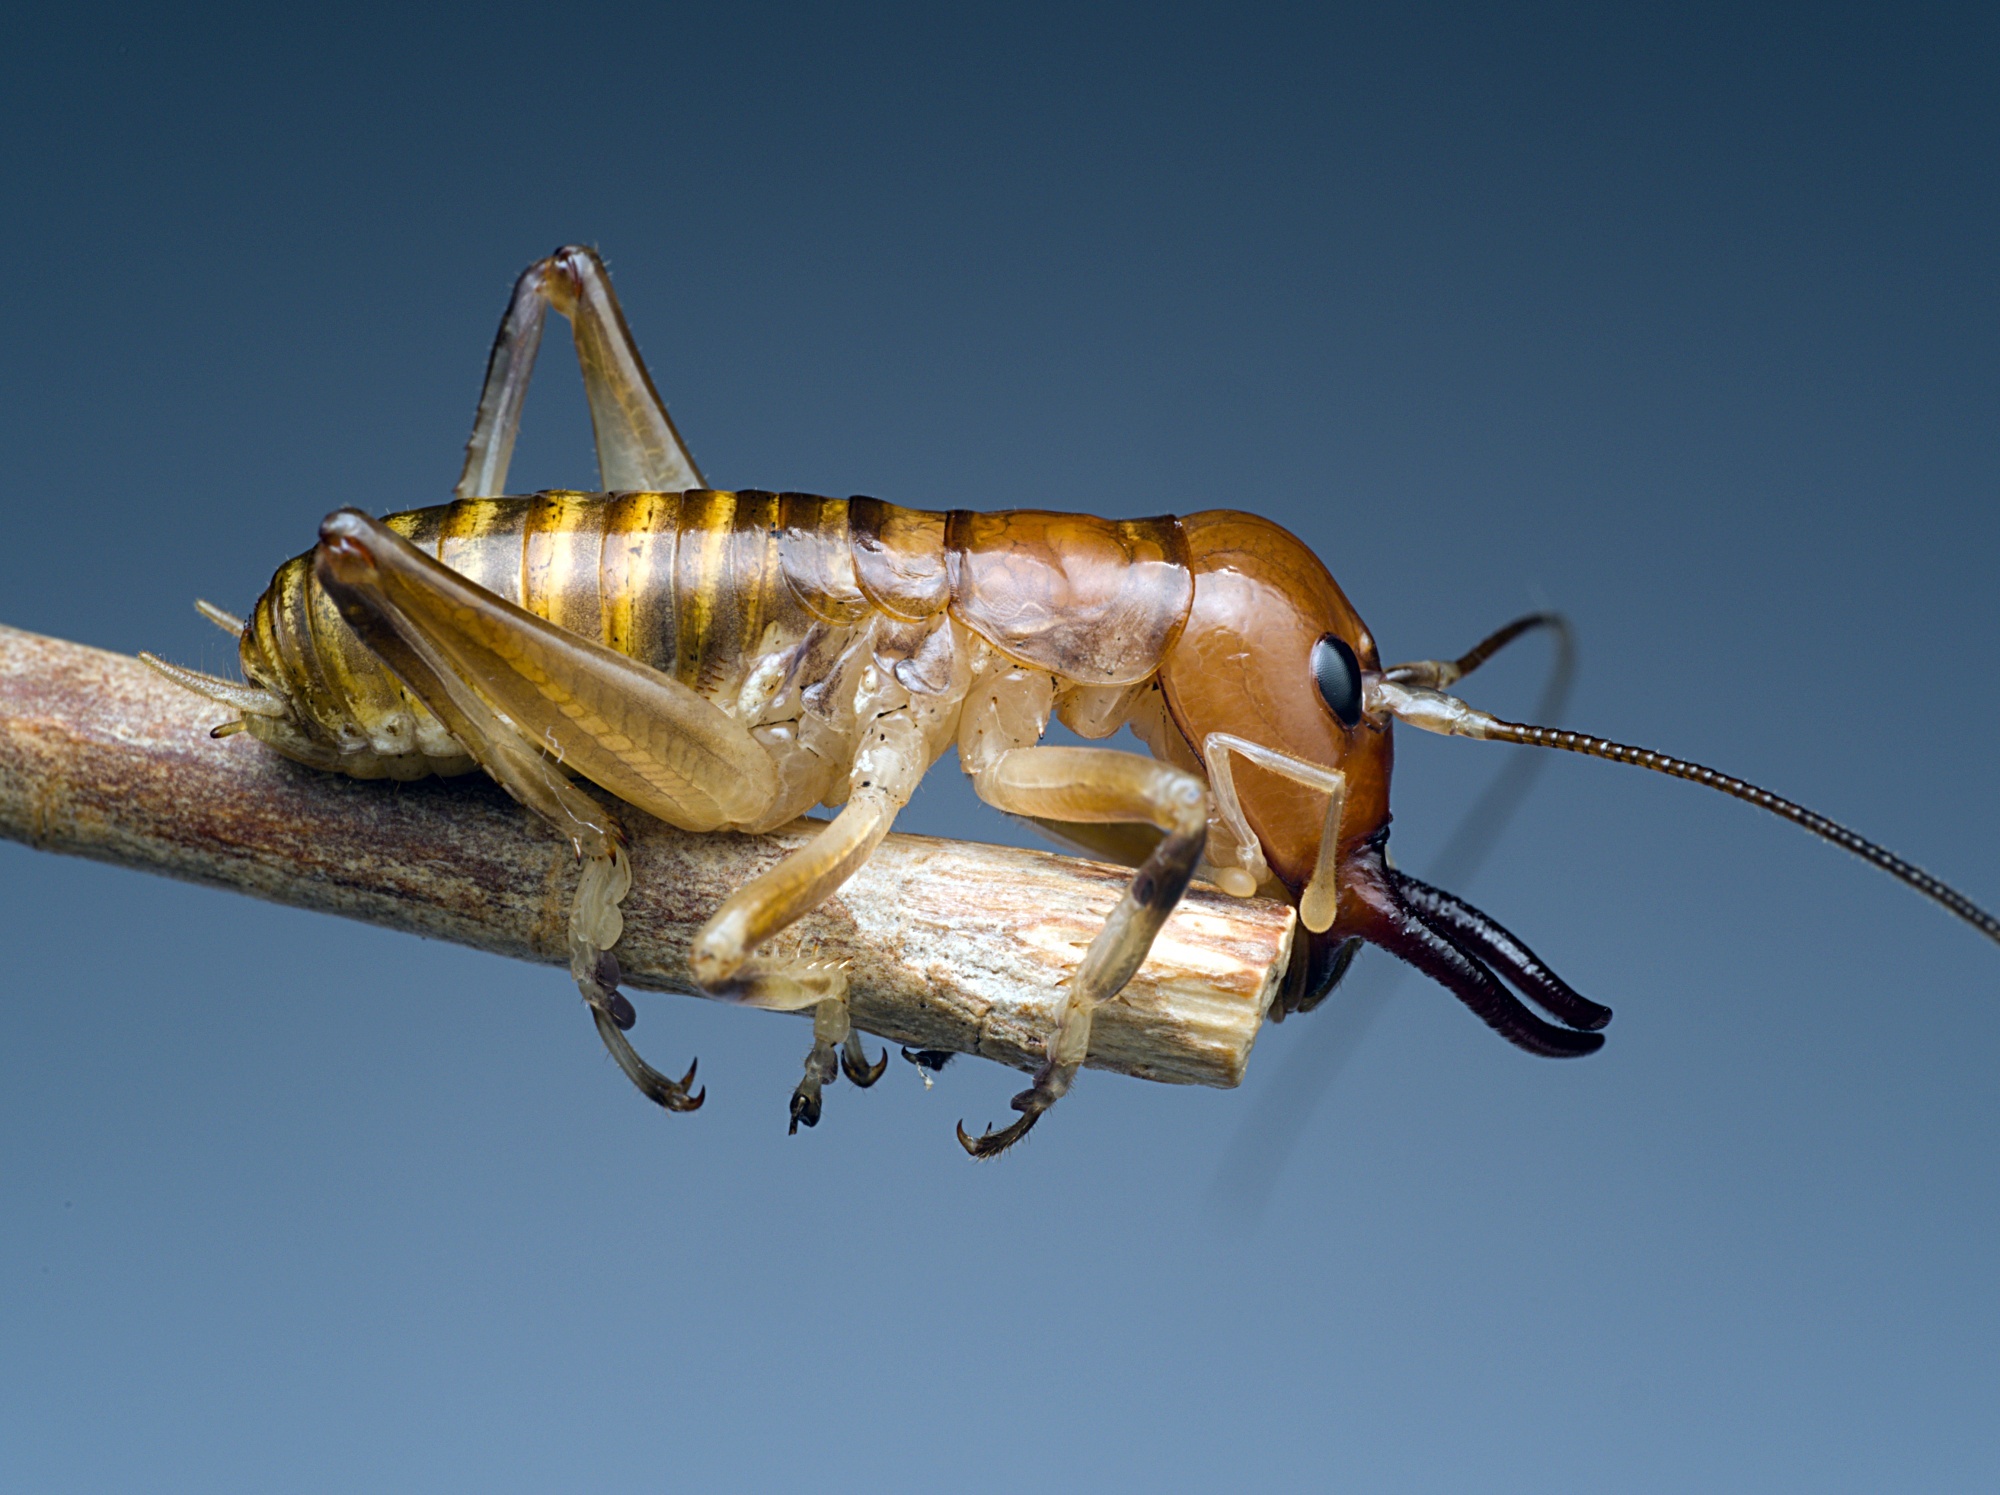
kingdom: Animalia
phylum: Arthropoda
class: Insecta
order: Orthoptera
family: Anostostomatidae
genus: Anisoura
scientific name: Anisoura nicobarica
